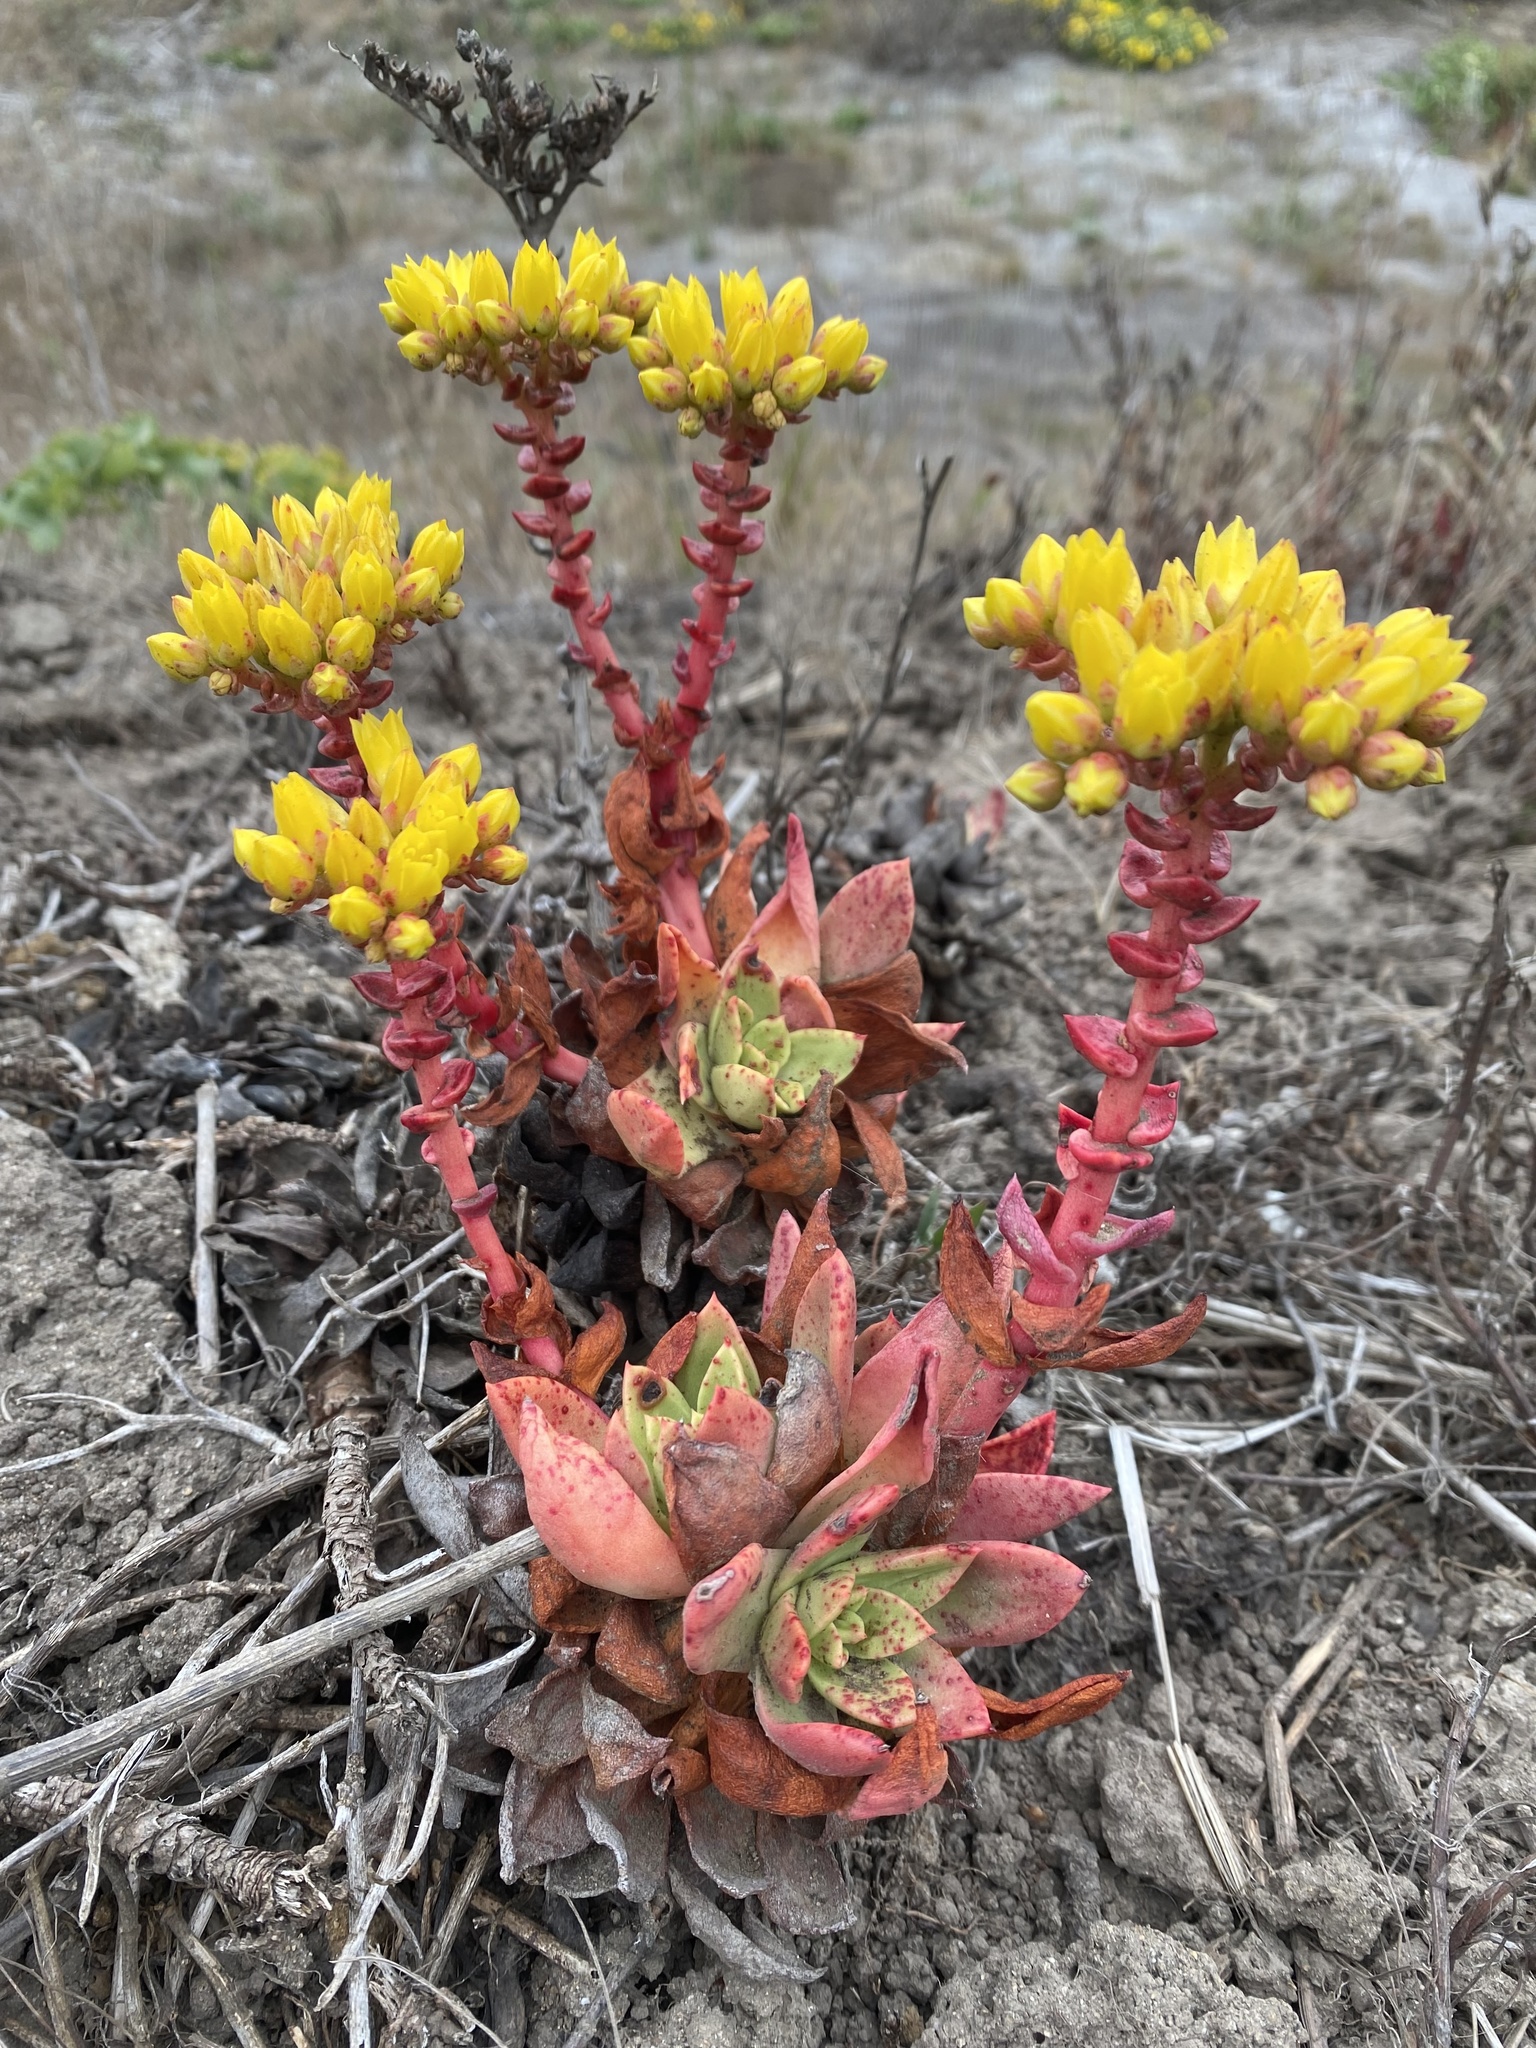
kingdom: Plantae
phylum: Tracheophyta
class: Magnoliopsida
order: Saxifragales
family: Crassulaceae
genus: Dudleya
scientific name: Dudleya caespitosa
